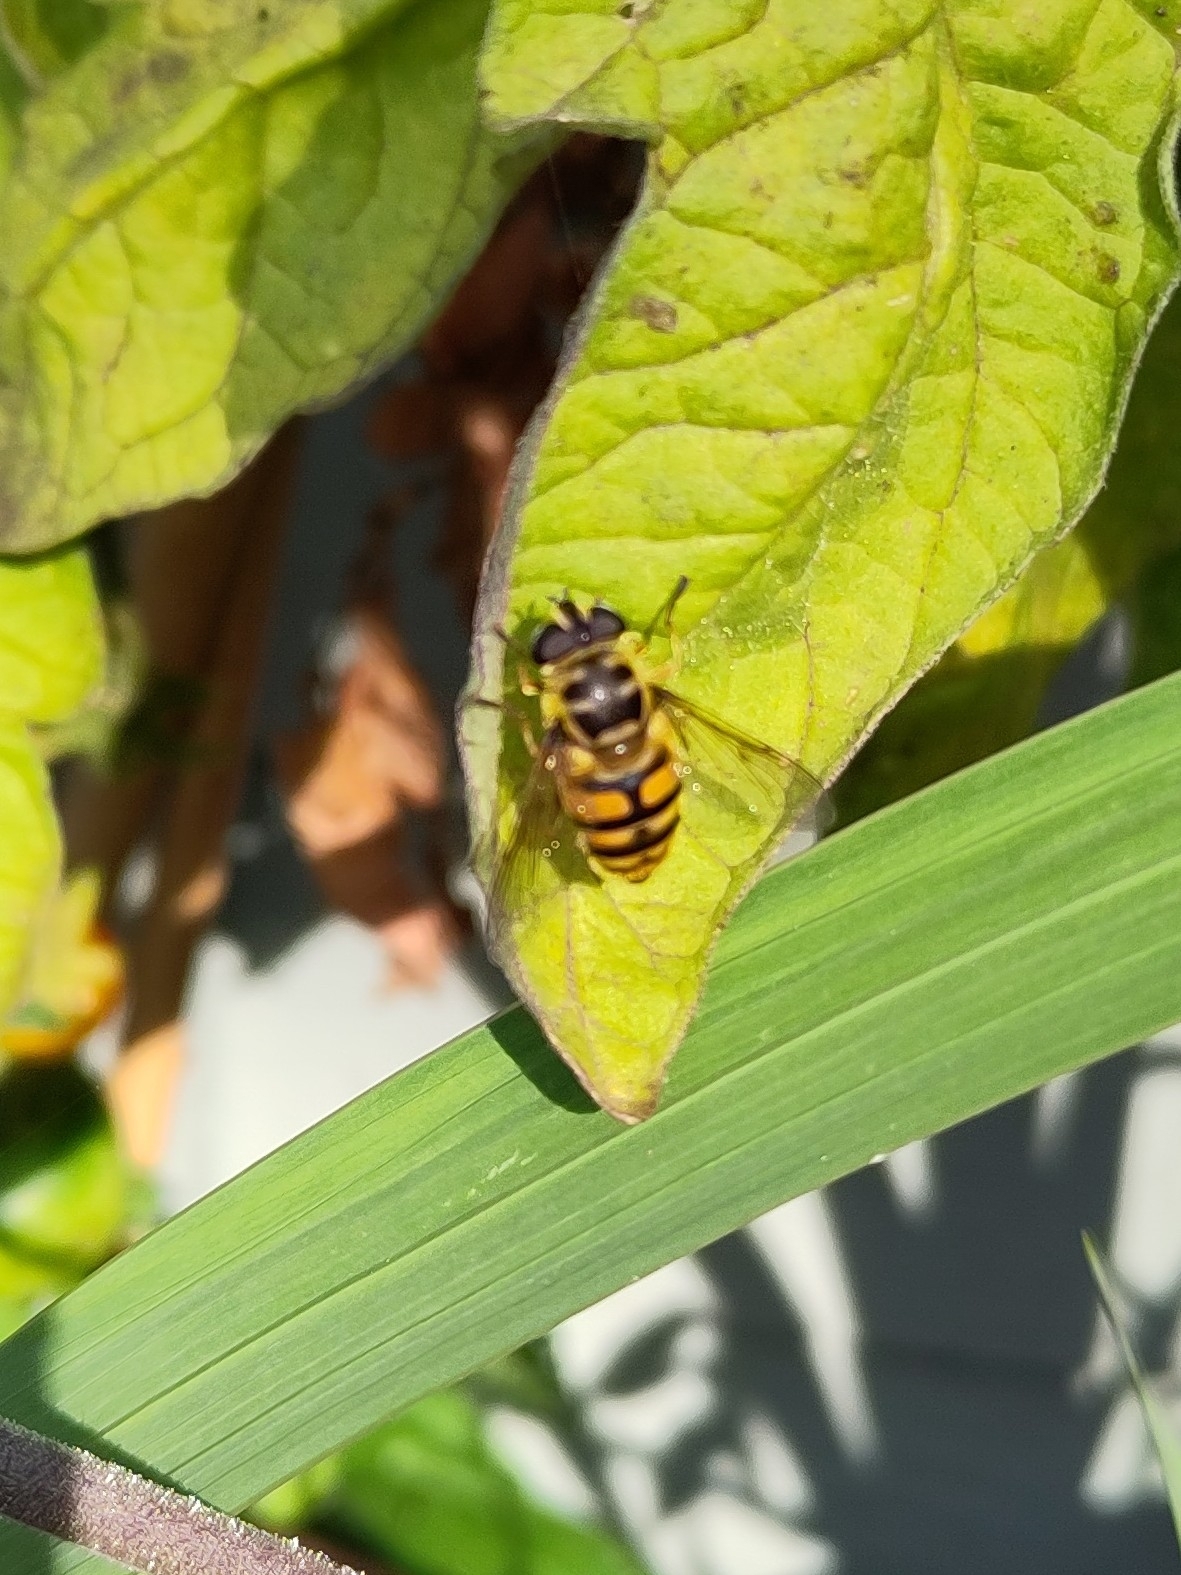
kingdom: Animalia
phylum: Arthropoda
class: Insecta
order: Diptera
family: Syrphidae
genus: Myathropa
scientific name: Myathropa florea
